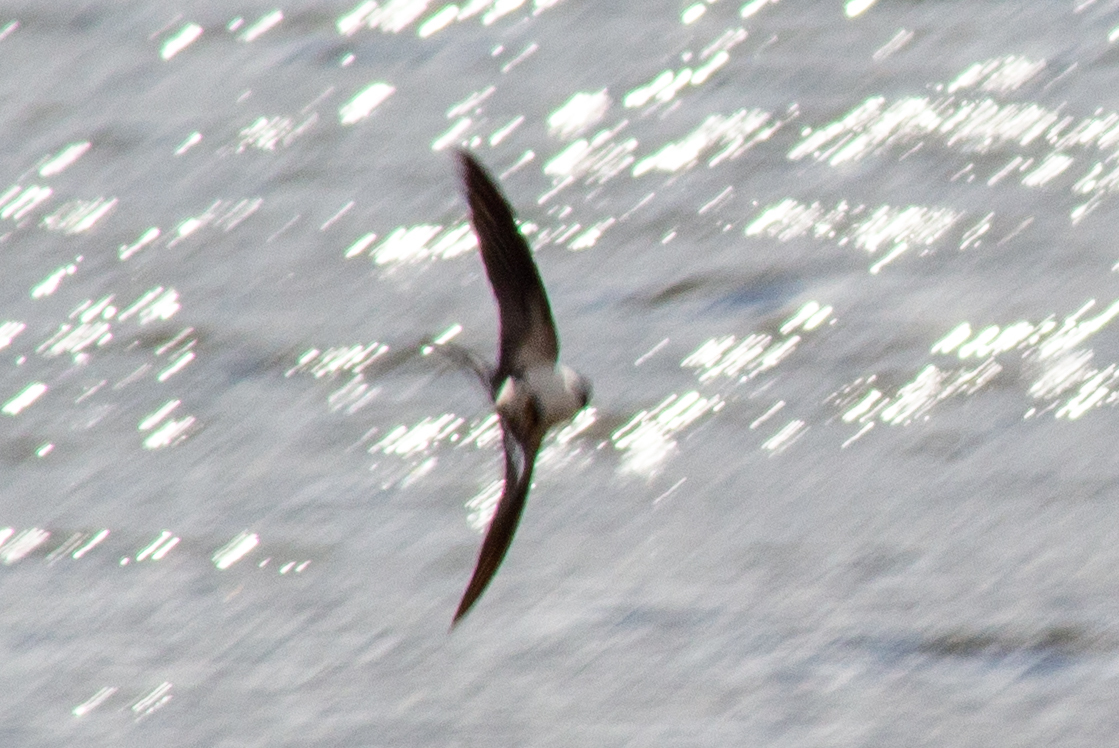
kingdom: Animalia
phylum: Chordata
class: Aves
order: Passeriformes
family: Hirundinidae
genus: Hirundo
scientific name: Hirundo rustica
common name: Barn swallow
